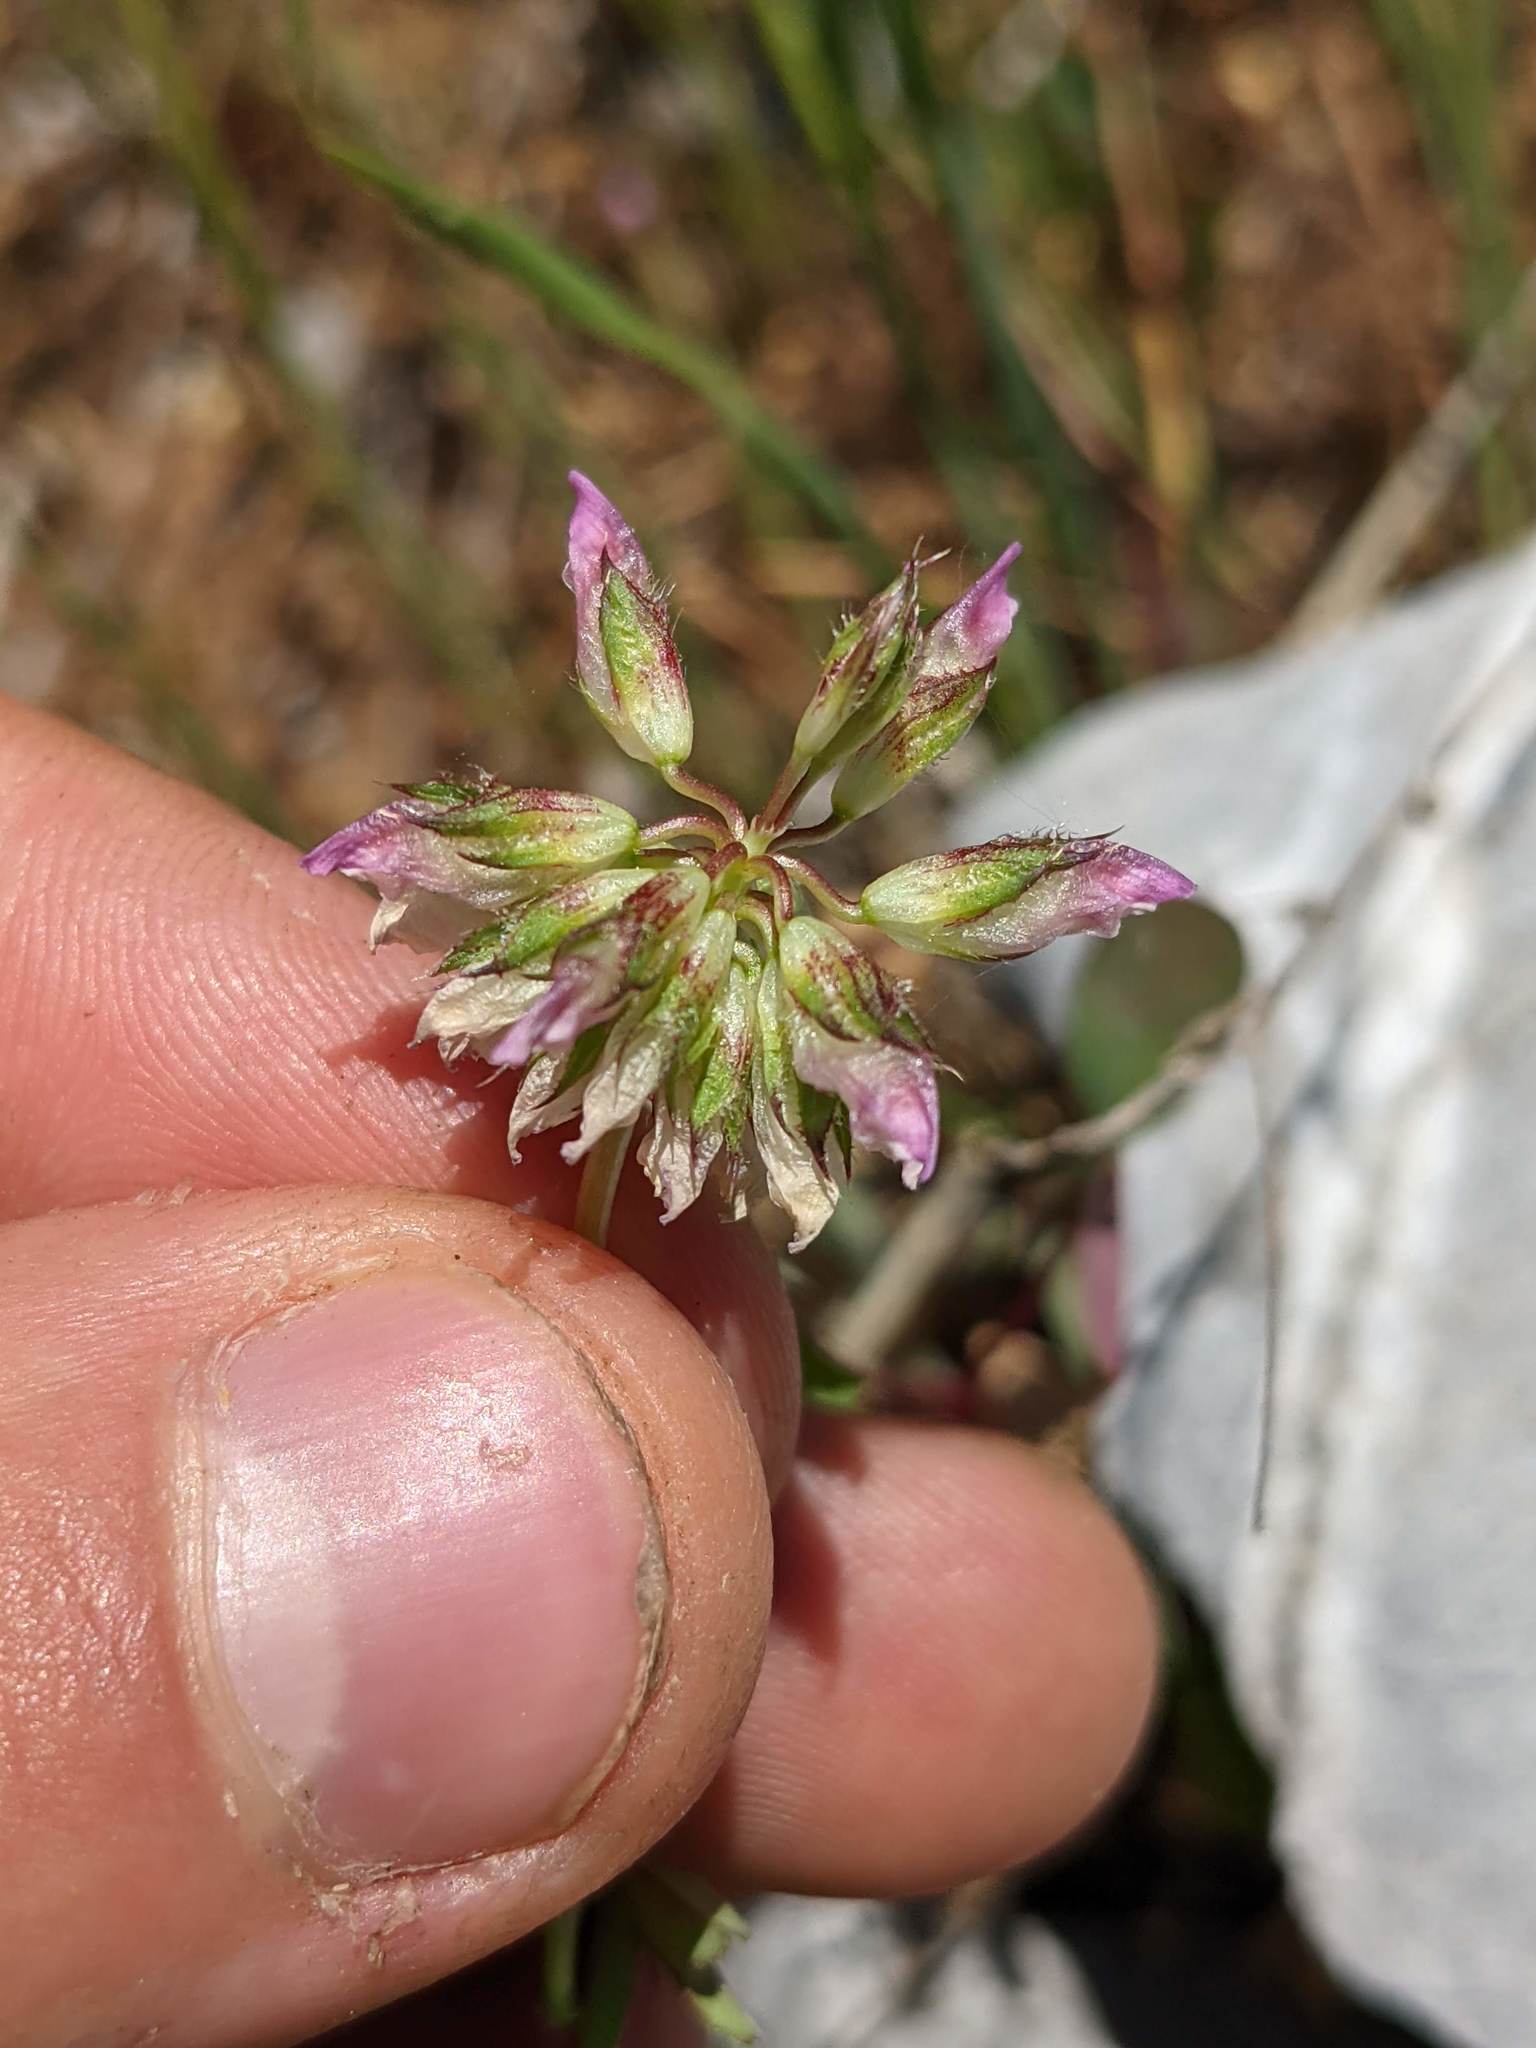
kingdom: Plantae
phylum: Tracheophyta
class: Magnoliopsida
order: Fabales
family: Fabaceae
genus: Trifolium
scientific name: Trifolium ciliolatum
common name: Foothill clover
